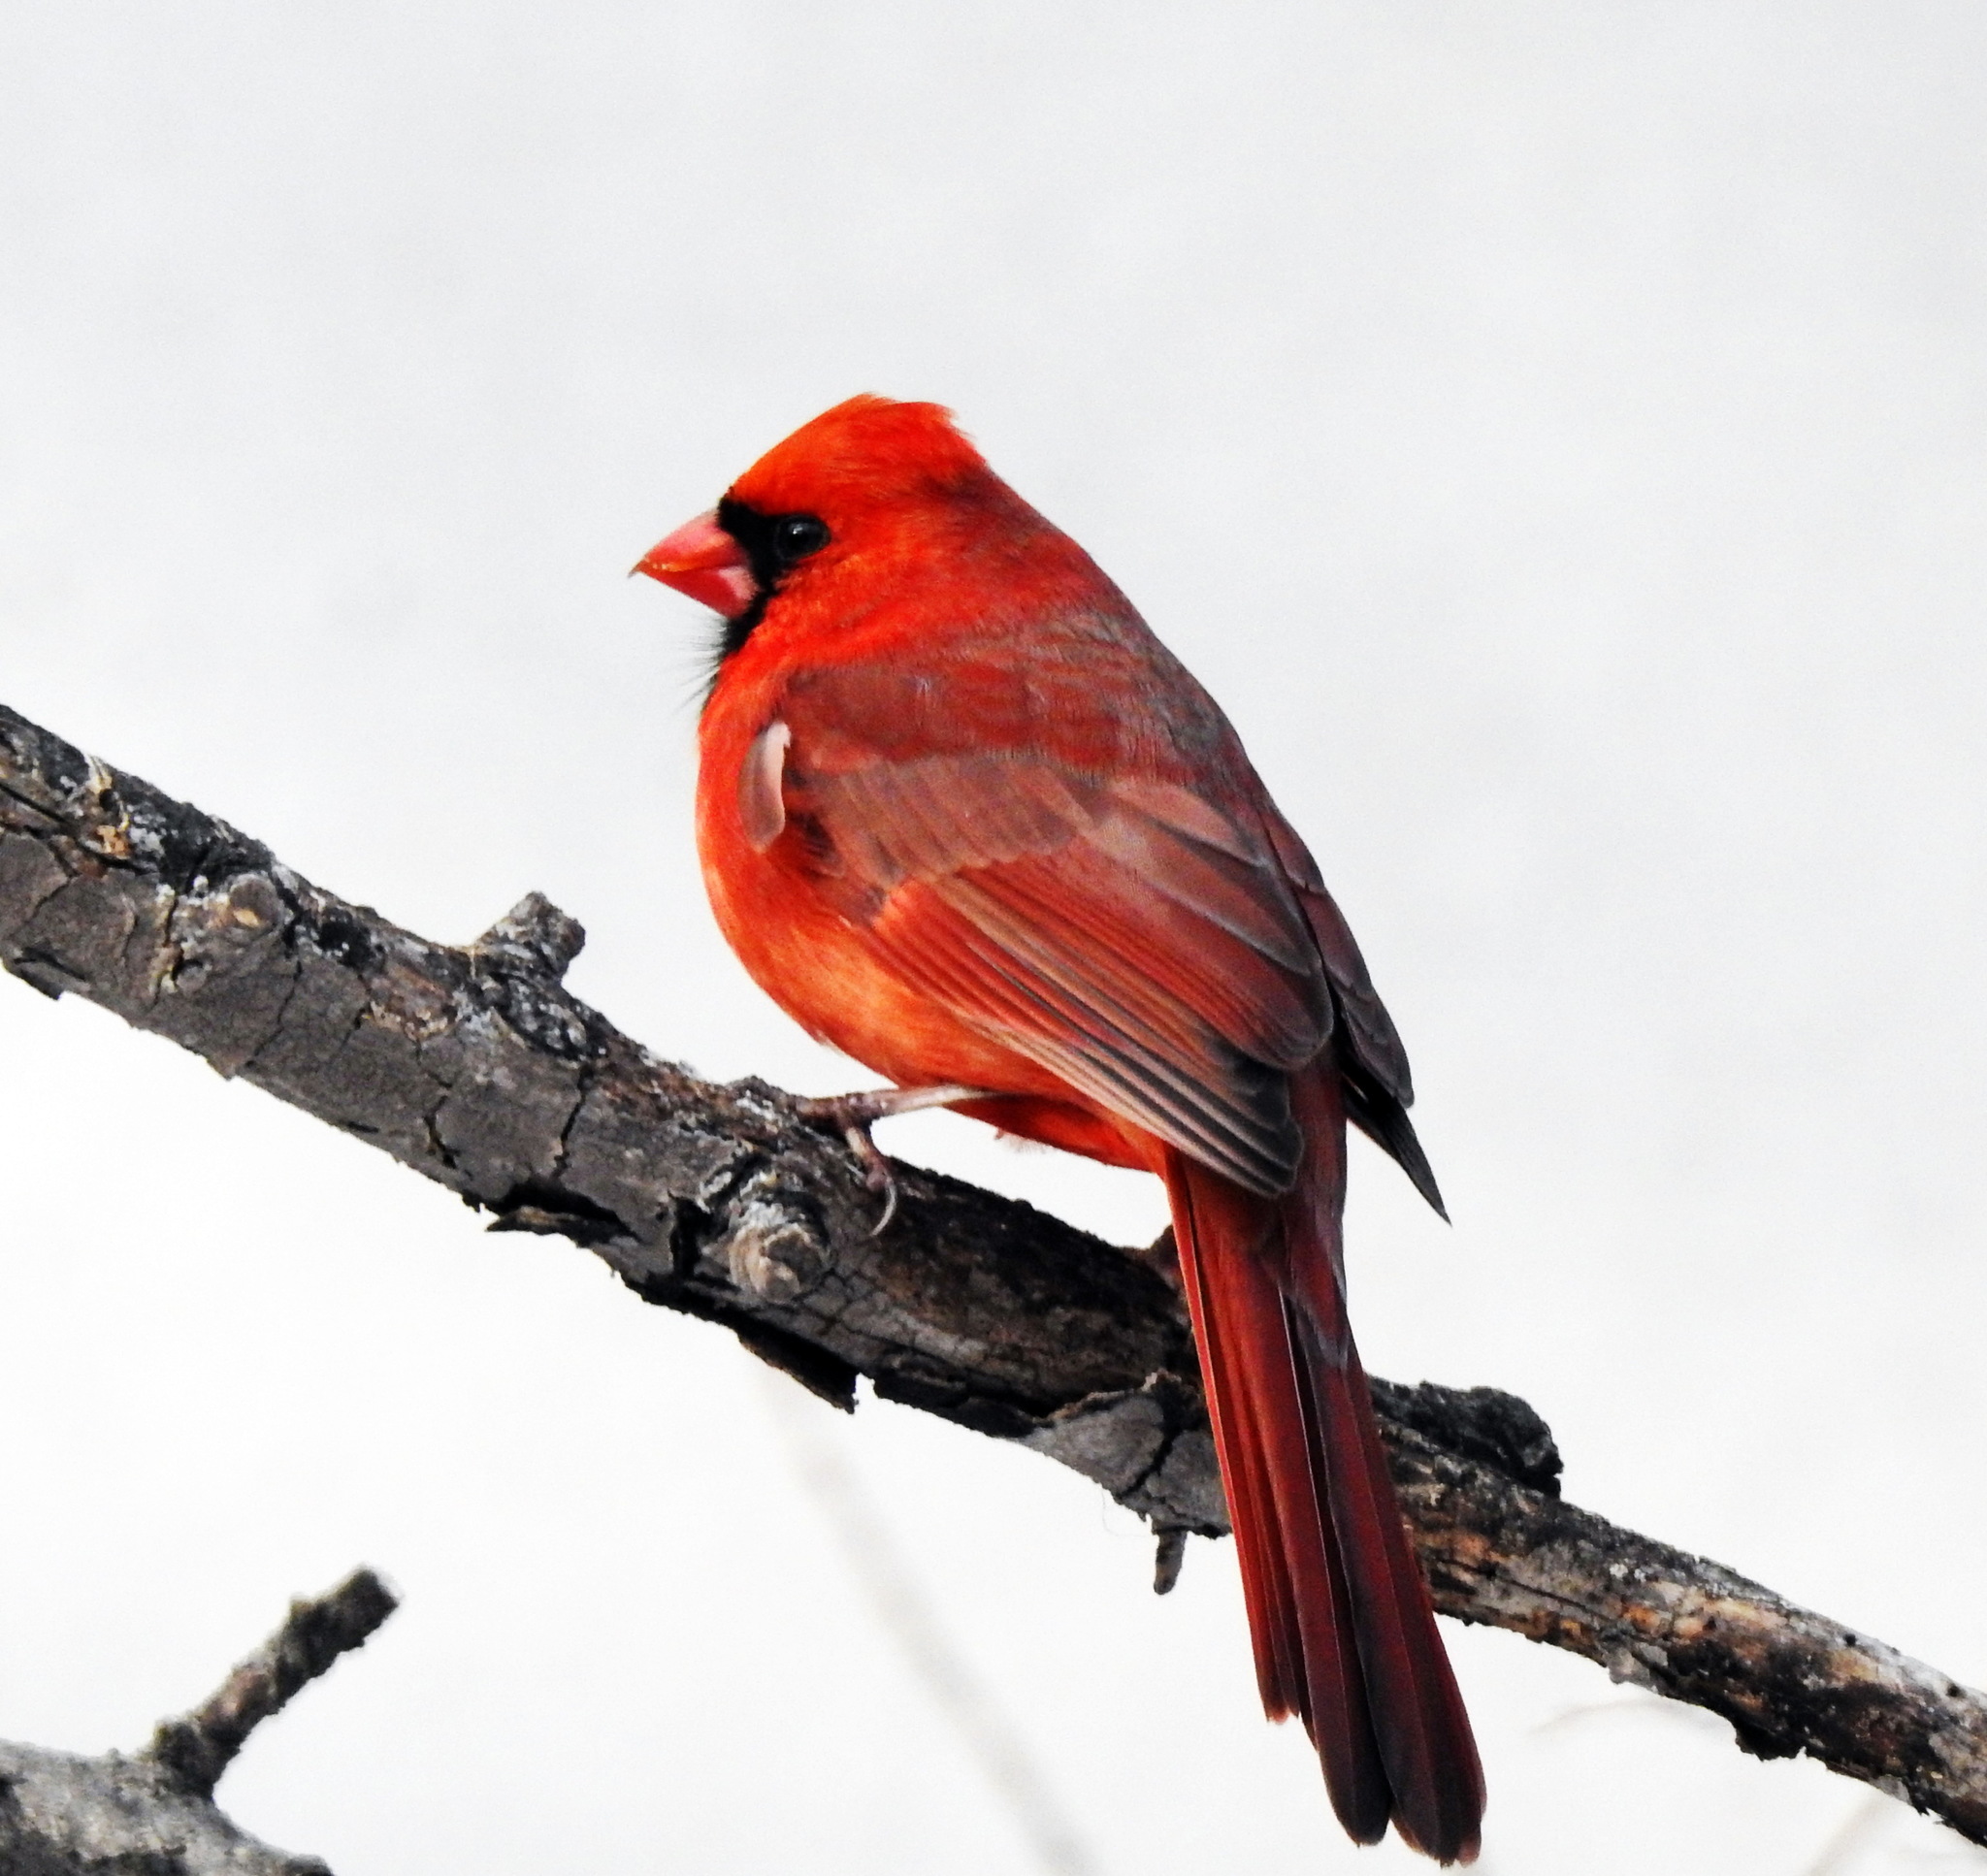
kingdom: Animalia
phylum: Chordata
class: Aves
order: Passeriformes
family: Cardinalidae
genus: Cardinalis
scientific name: Cardinalis cardinalis
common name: Northern cardinal
